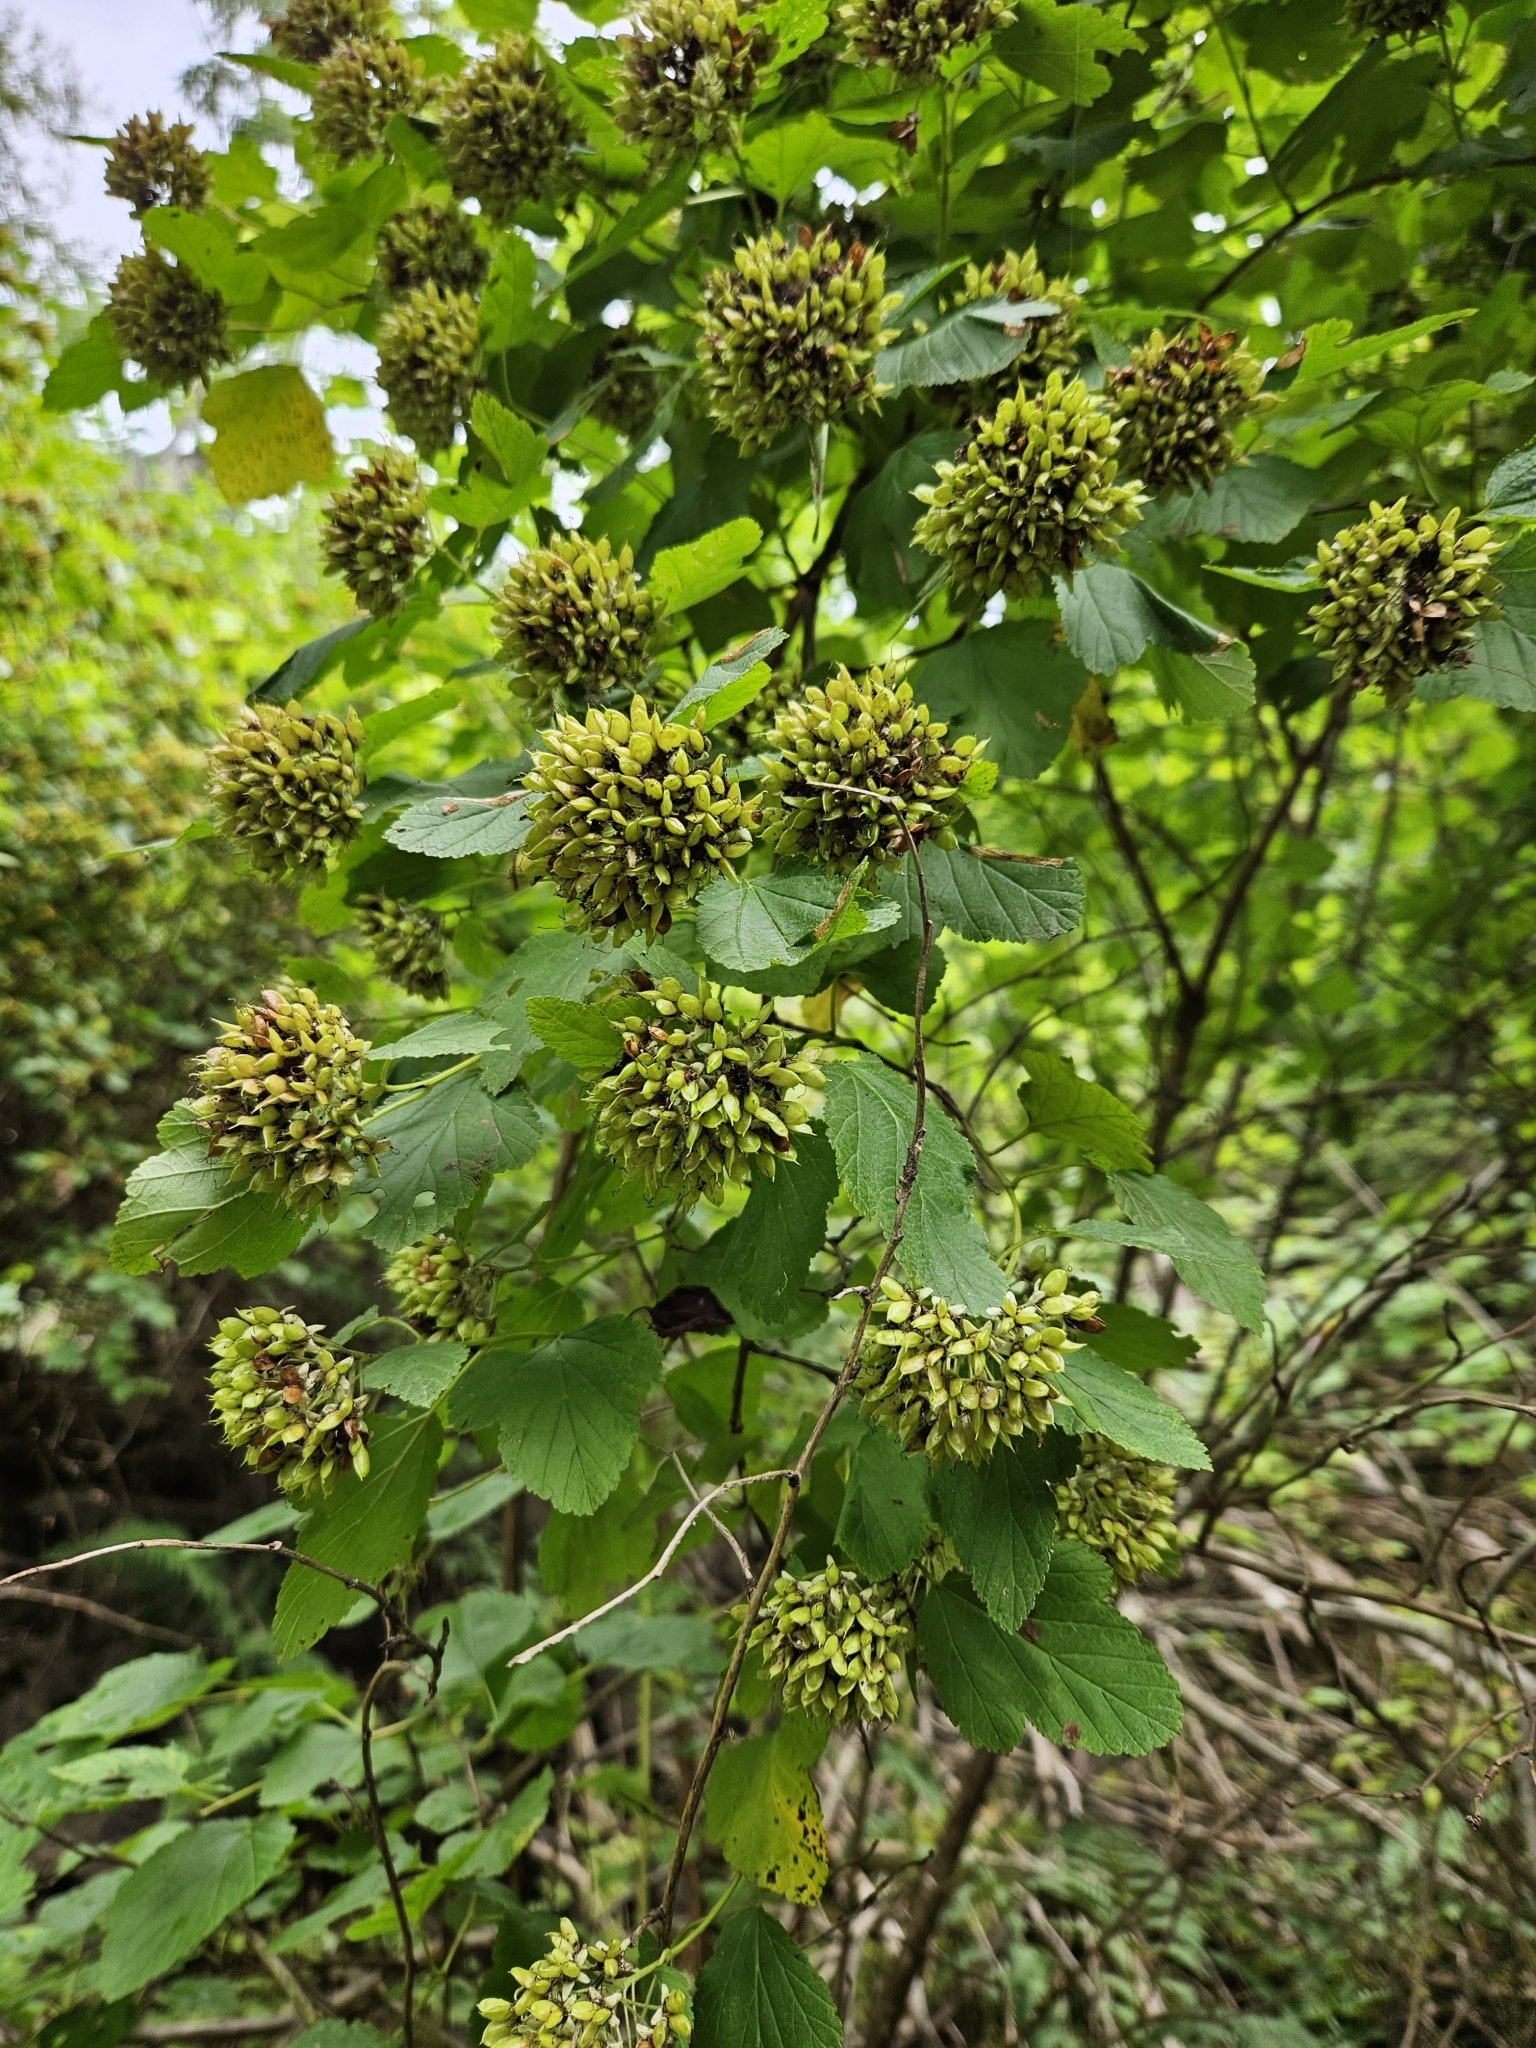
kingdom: Plantae
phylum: Tracheophyta
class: Magnoliopsida
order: Rosales
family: Rosaceae
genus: Physocarpus
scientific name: Physocarpus opulifolius
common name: Ninebark
